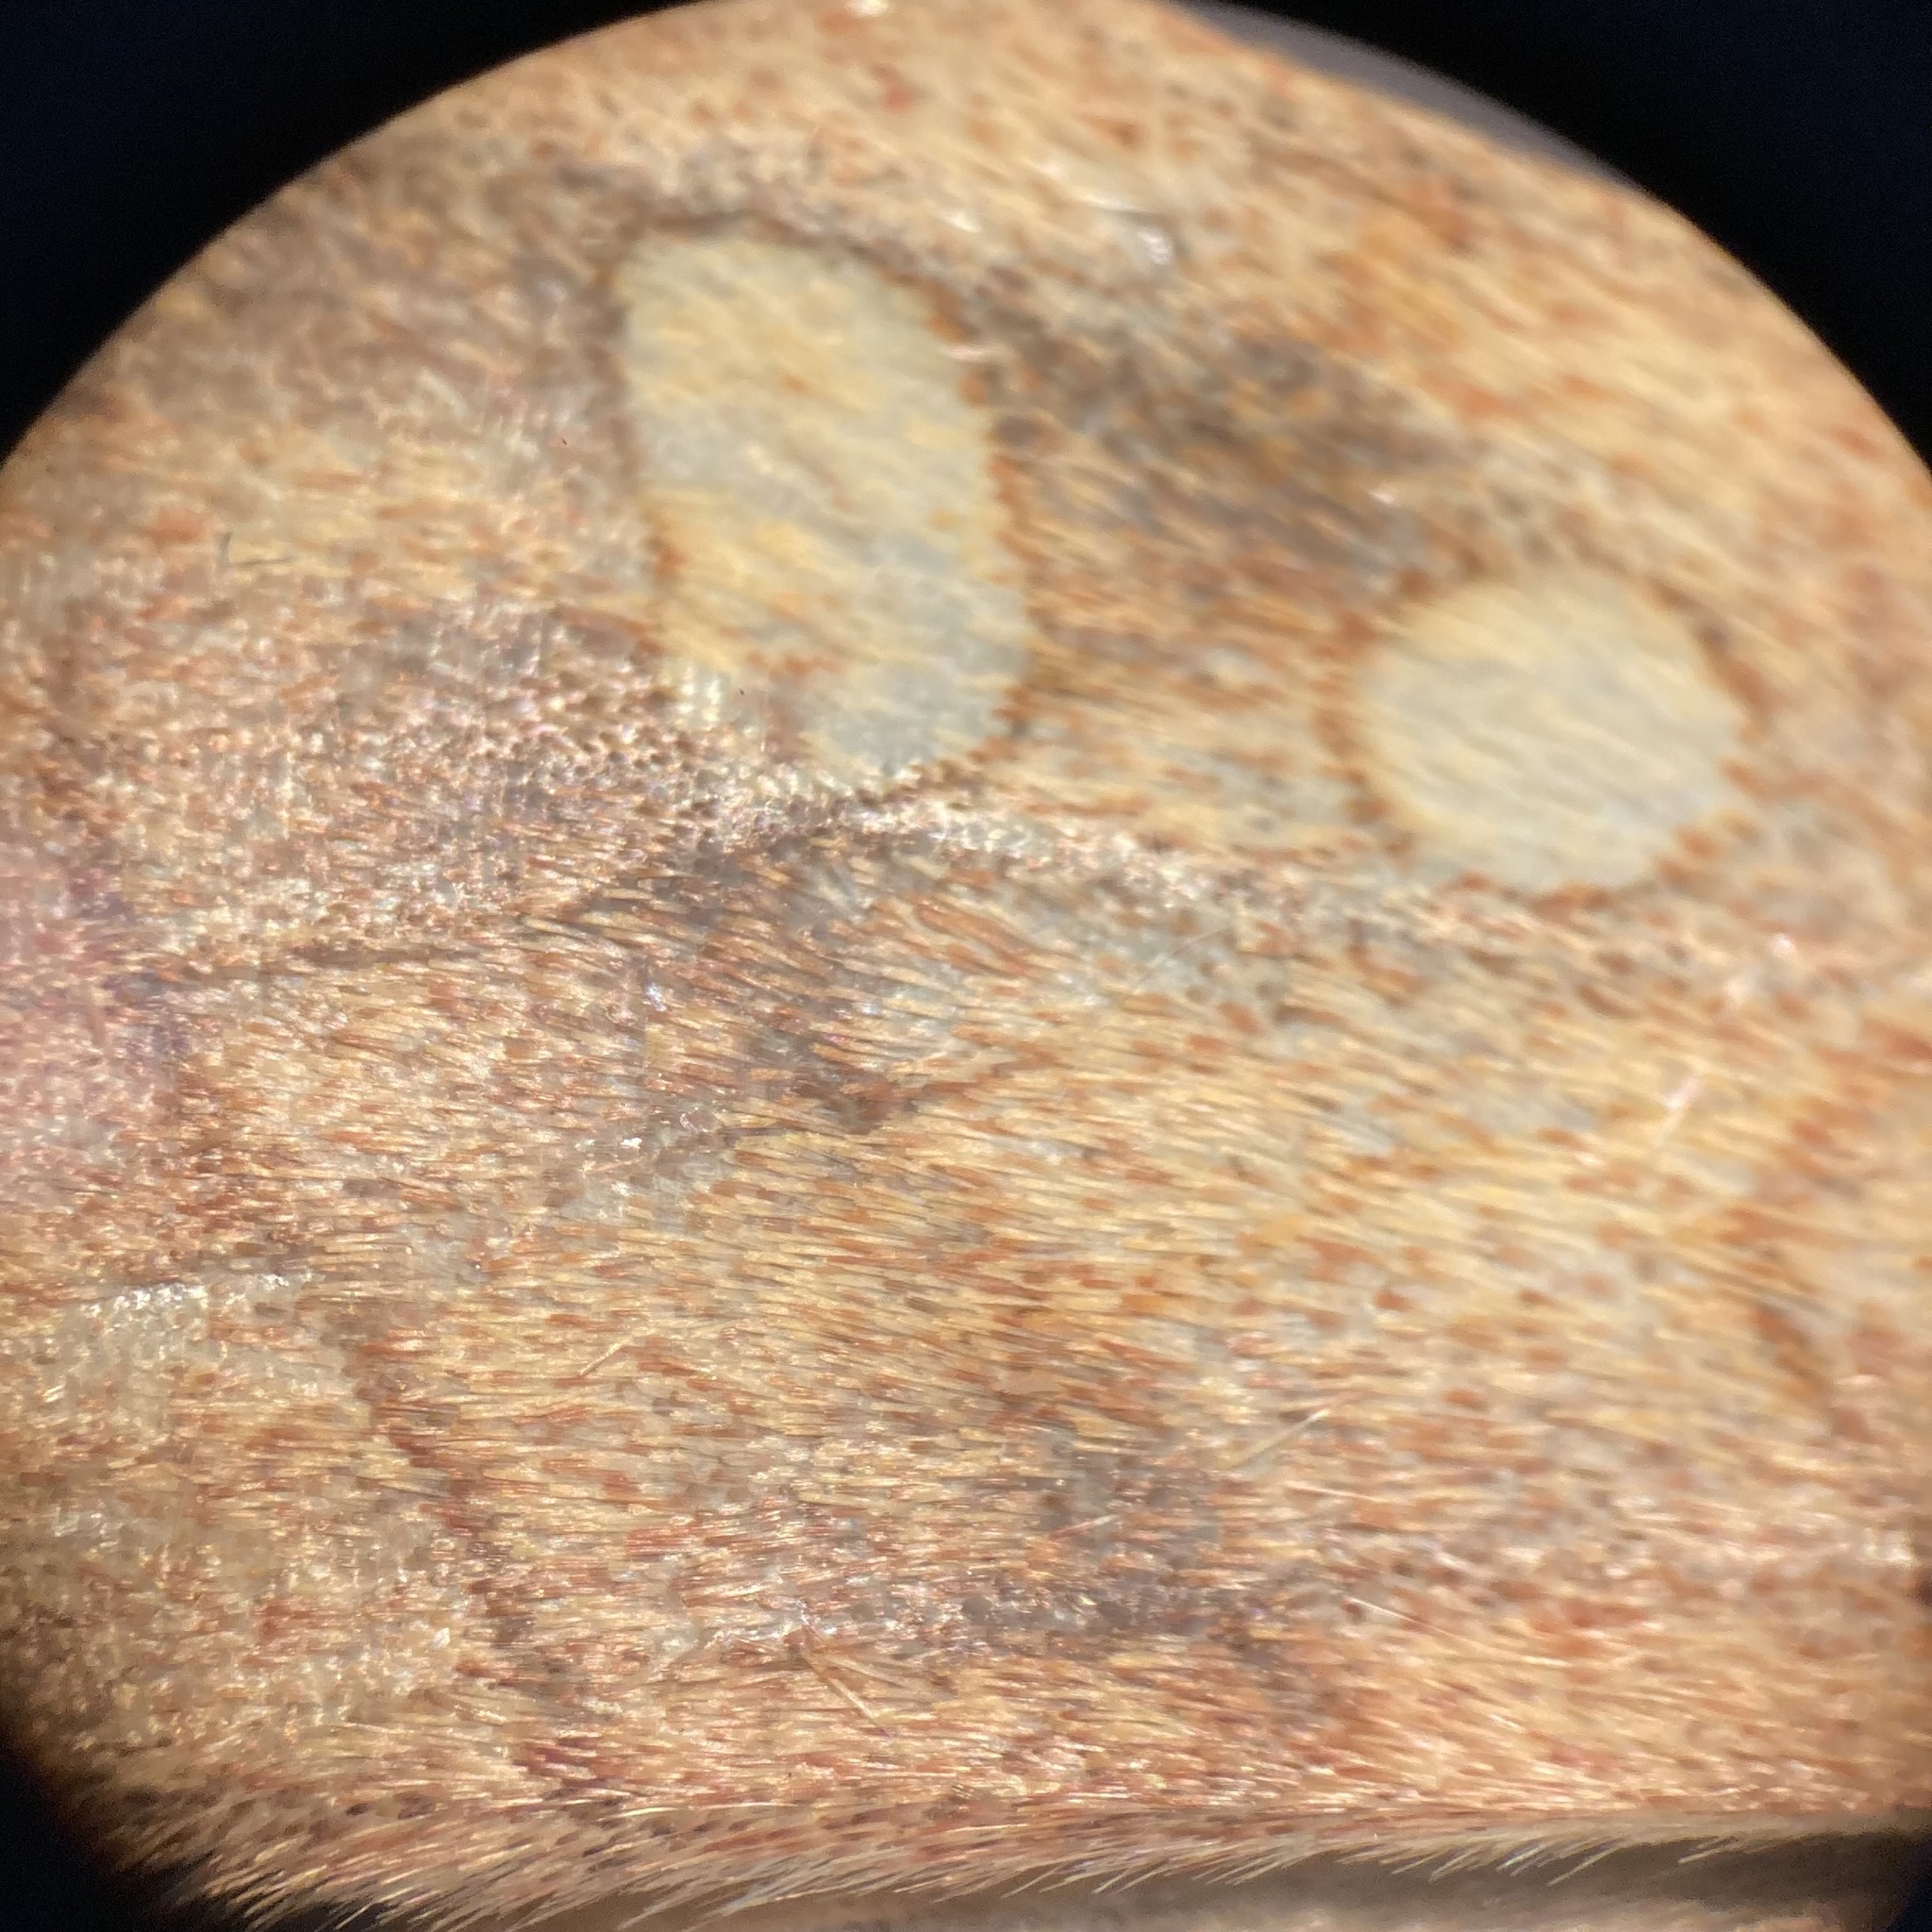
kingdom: Animalia
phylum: Arthropoda
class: Insecta
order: Lepidoptera
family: Noctuidae
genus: Enargia
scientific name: Enargia decolor
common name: Aspen twoleaf tier moth
